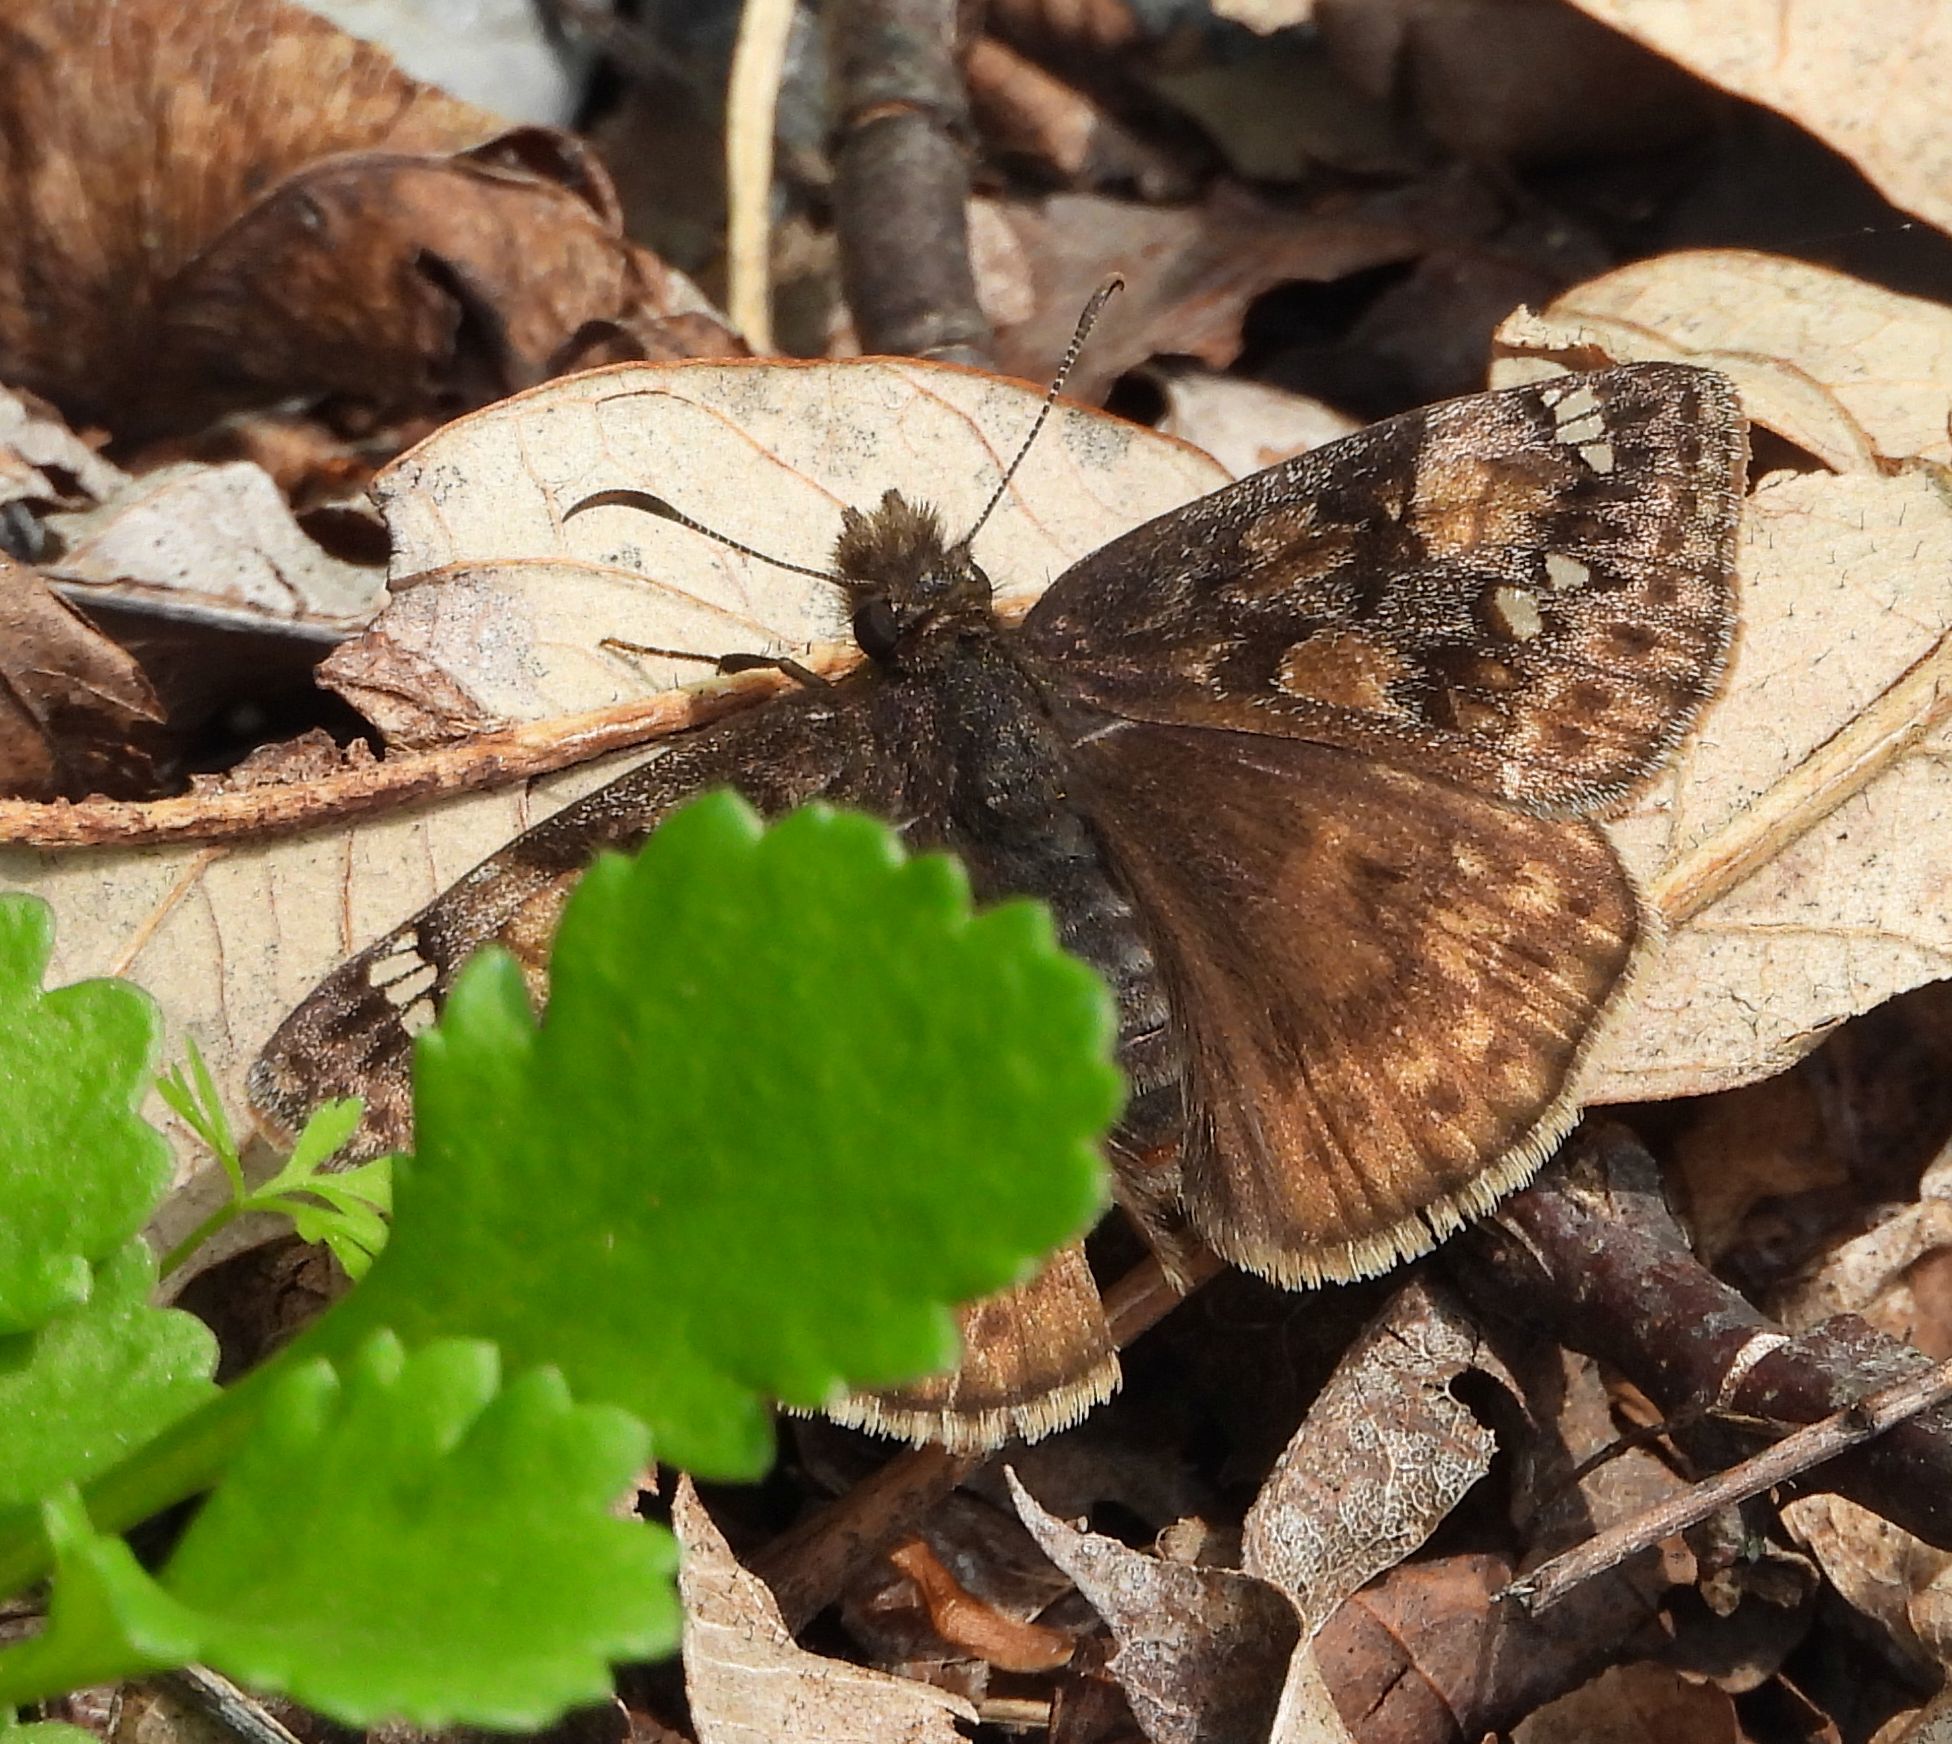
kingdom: Animalia
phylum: Arthropoda
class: Insecta
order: Lepidoptera
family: Hesperiidae
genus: Erynnis
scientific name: Erynnis juvenalis
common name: Juvenal's duskywing
